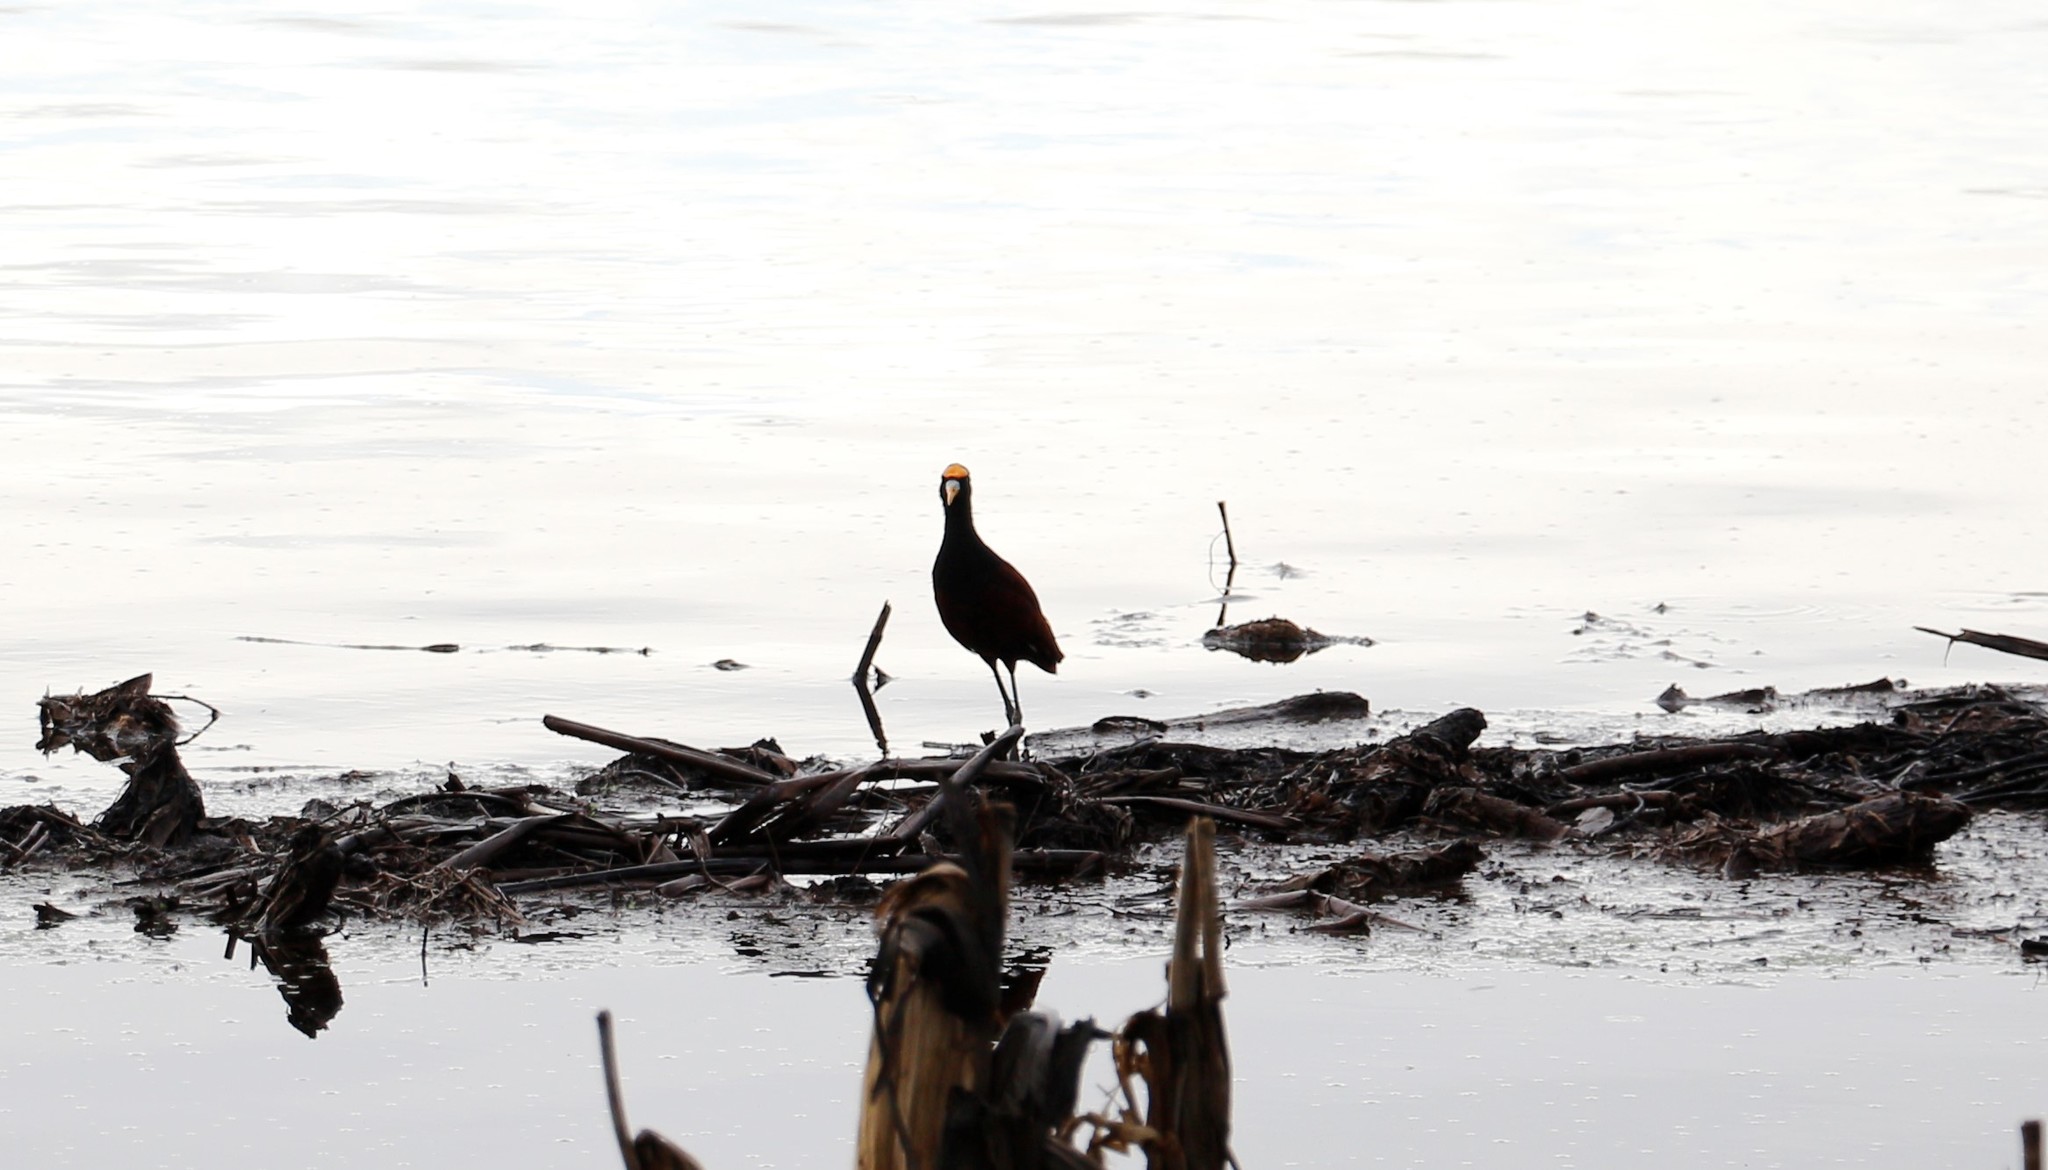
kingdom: Animalia
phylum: Chordata
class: Aves
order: Charadriiformes
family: Jacanidae
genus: Jacana
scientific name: Jacana spinosa
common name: Northern jacana
